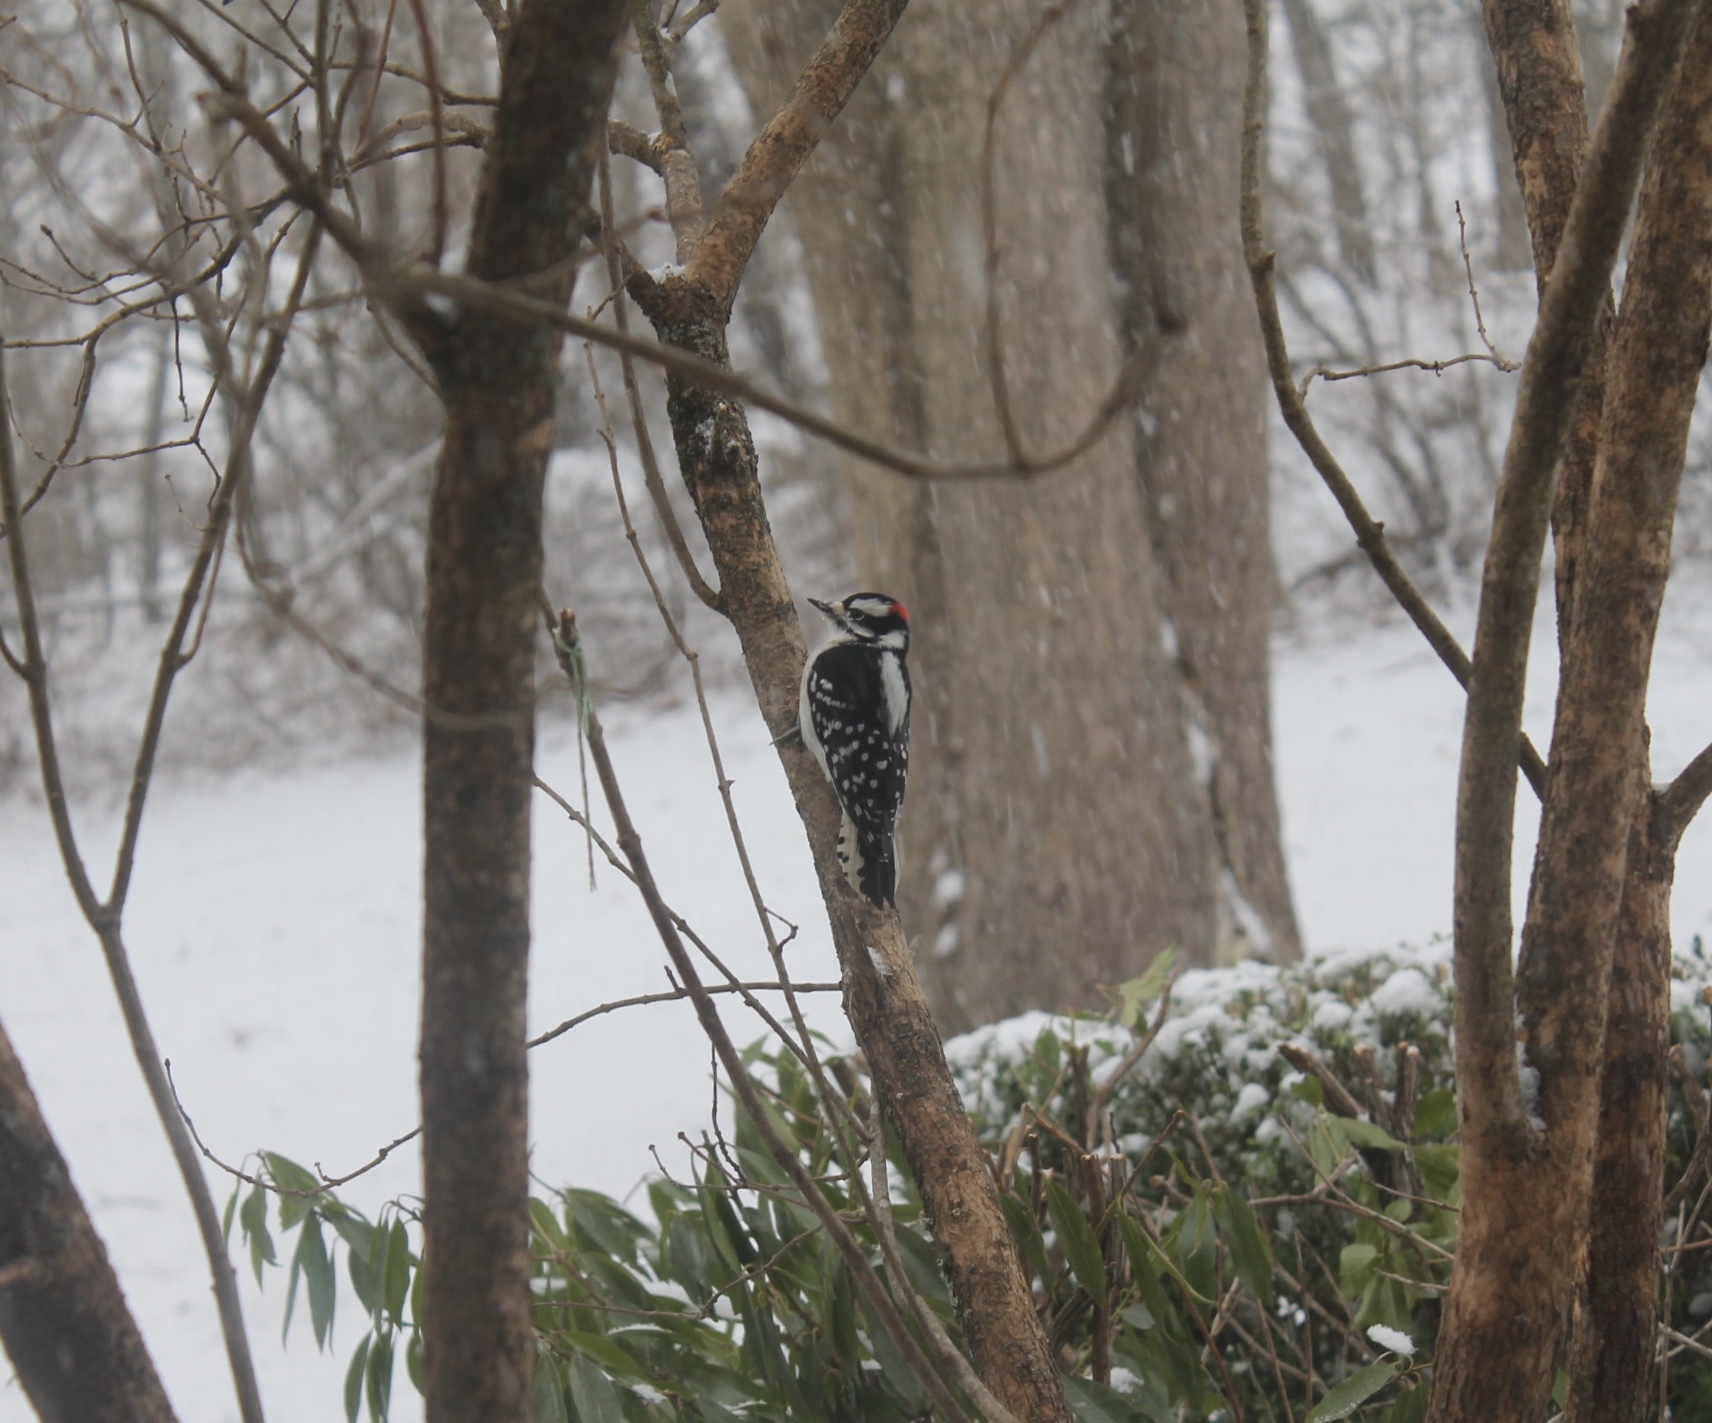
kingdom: Animalia
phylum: Chordata
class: Aves
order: Piciformes
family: Picidae
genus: Dryobates
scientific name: Dryobates pubescens
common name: Downy woodpecker
